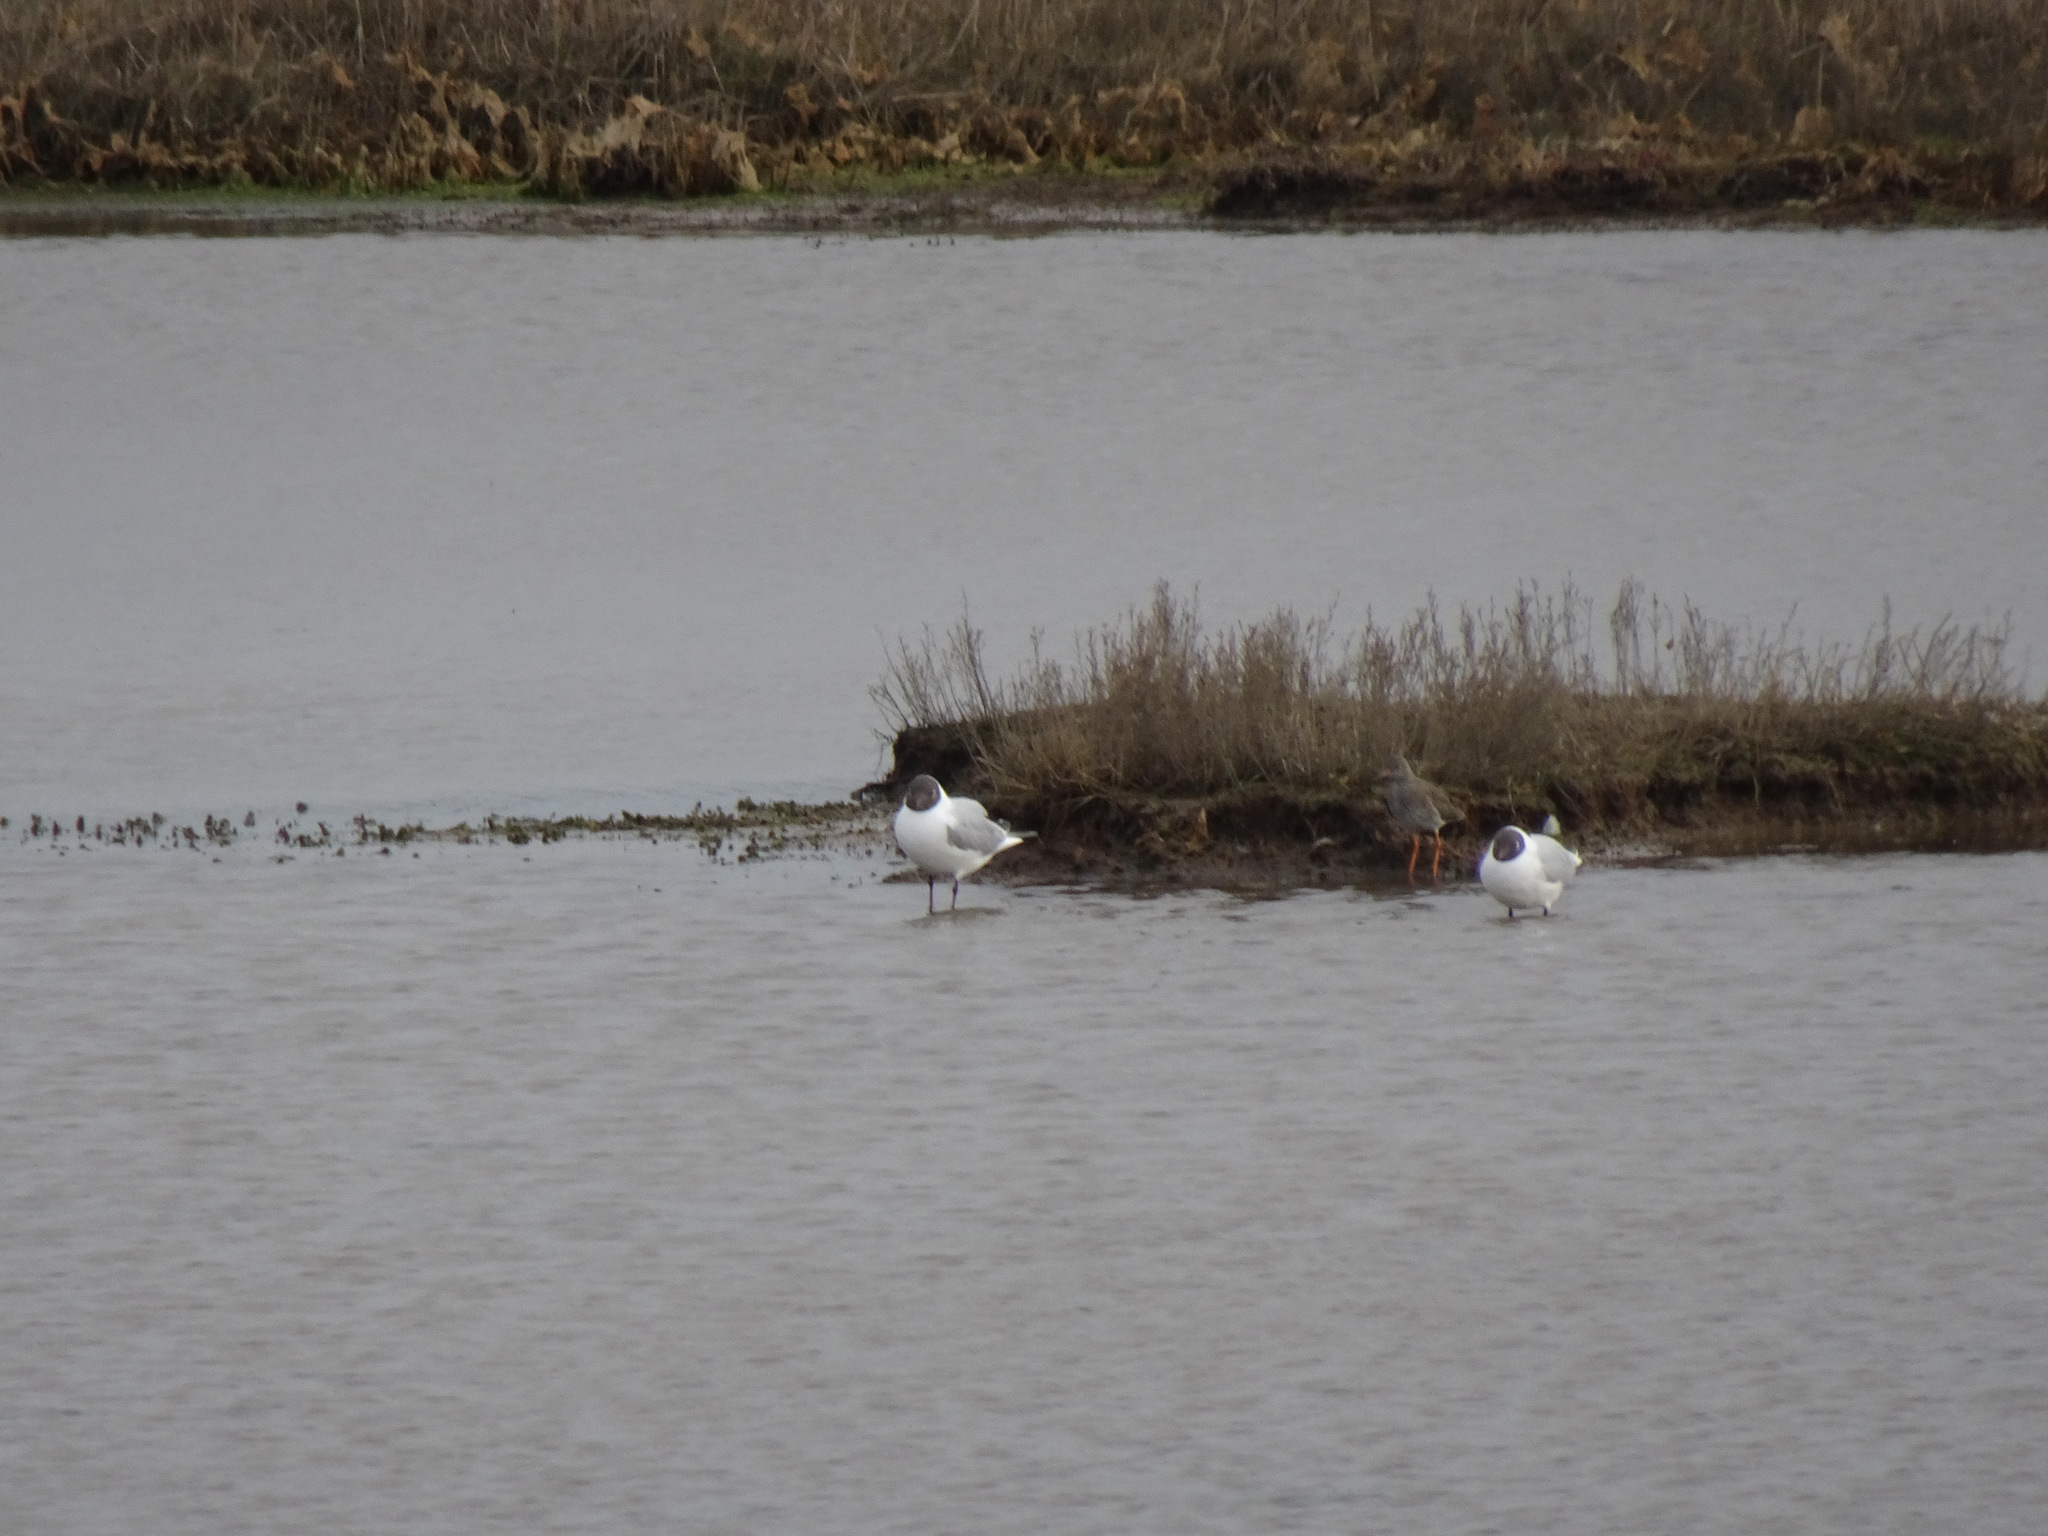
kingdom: Animalia
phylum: Chordata
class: Aves
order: Charadriiformes
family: Laridae
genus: Chroicocephalus
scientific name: Chroicocephalus ridibundus
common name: Black-headed gull
